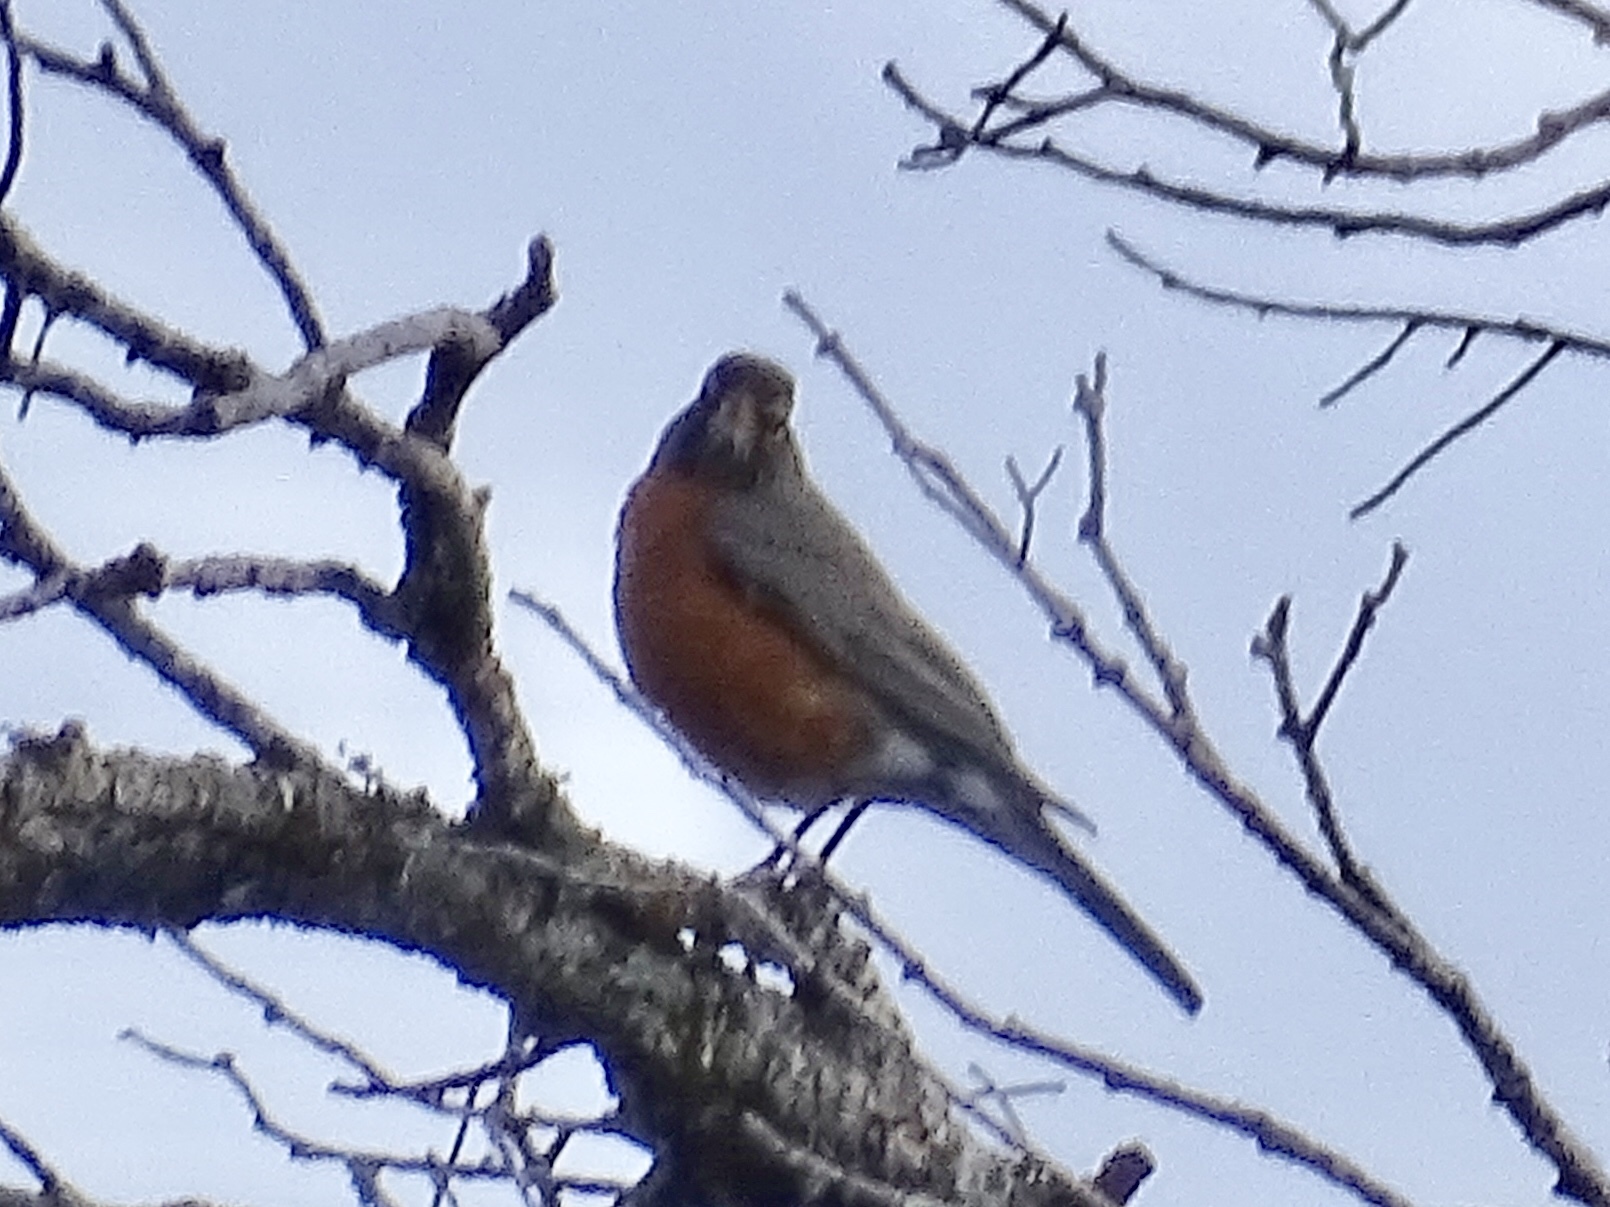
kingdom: Animalia
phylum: Chordata
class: Aves
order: Passeriformes
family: Turdidae
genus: Turdus
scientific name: Turdus migratorius
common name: American robin
